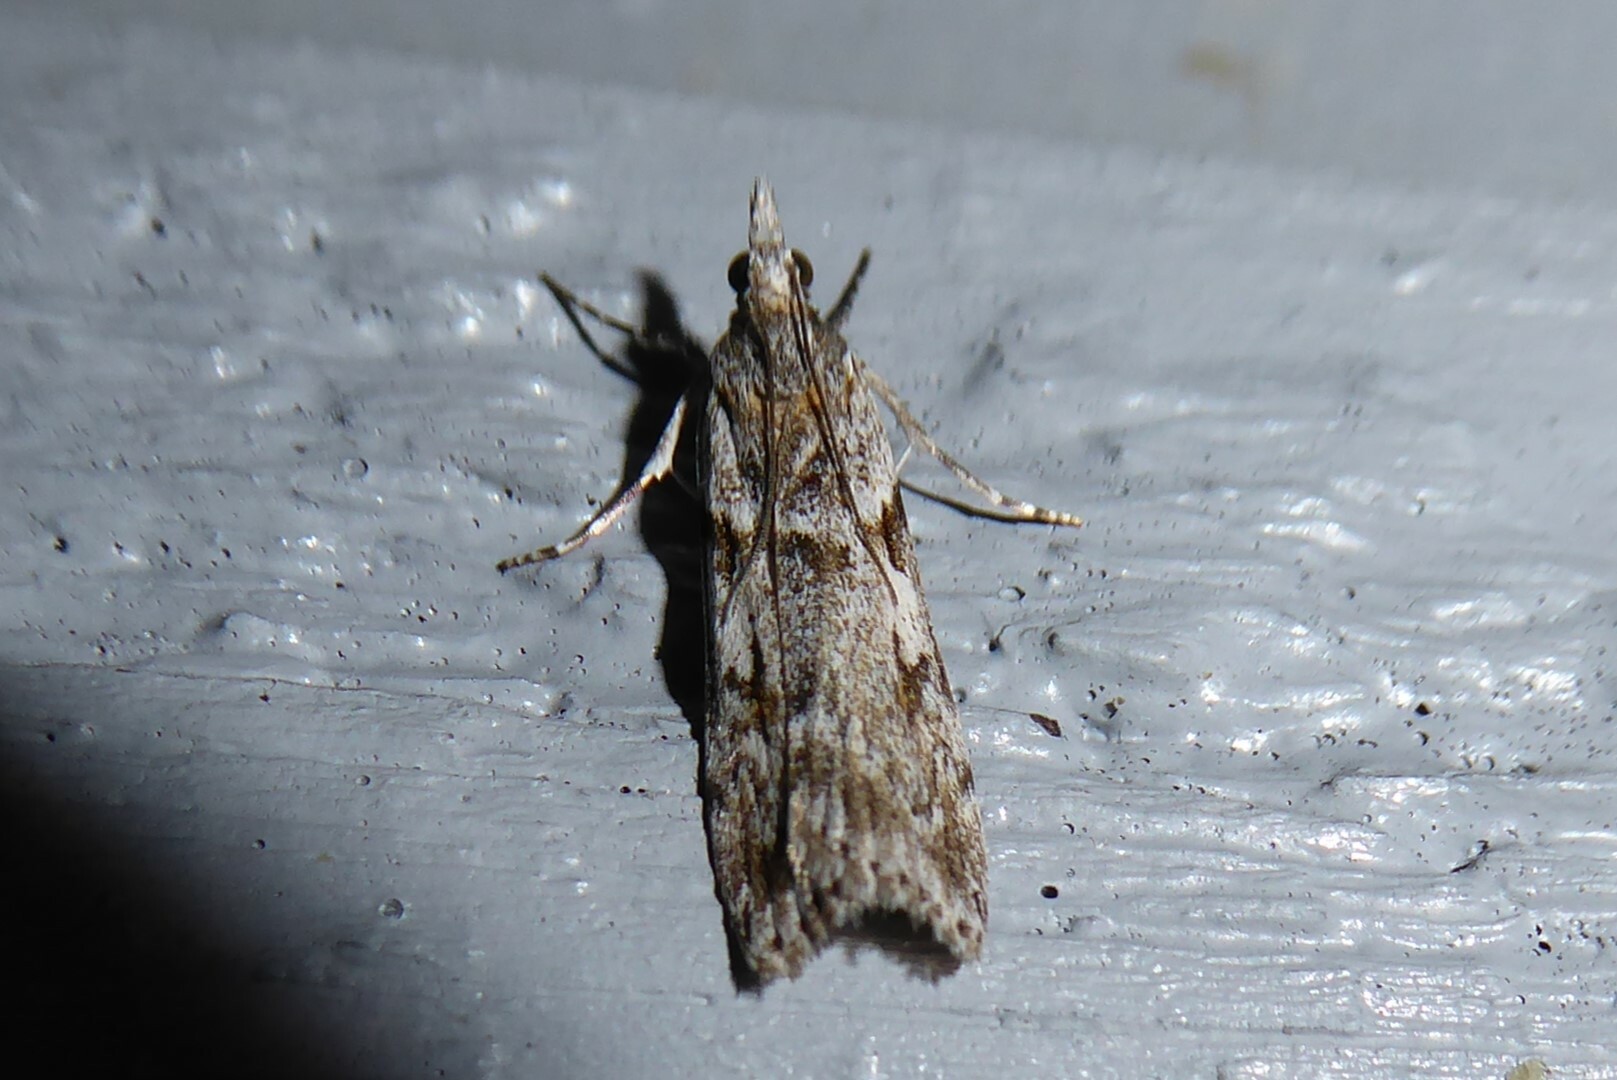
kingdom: Animalia
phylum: Arthropoda
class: Insecta
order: Lepidoptera
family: Crambidae
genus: Scoparia
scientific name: Scoparia halopis
